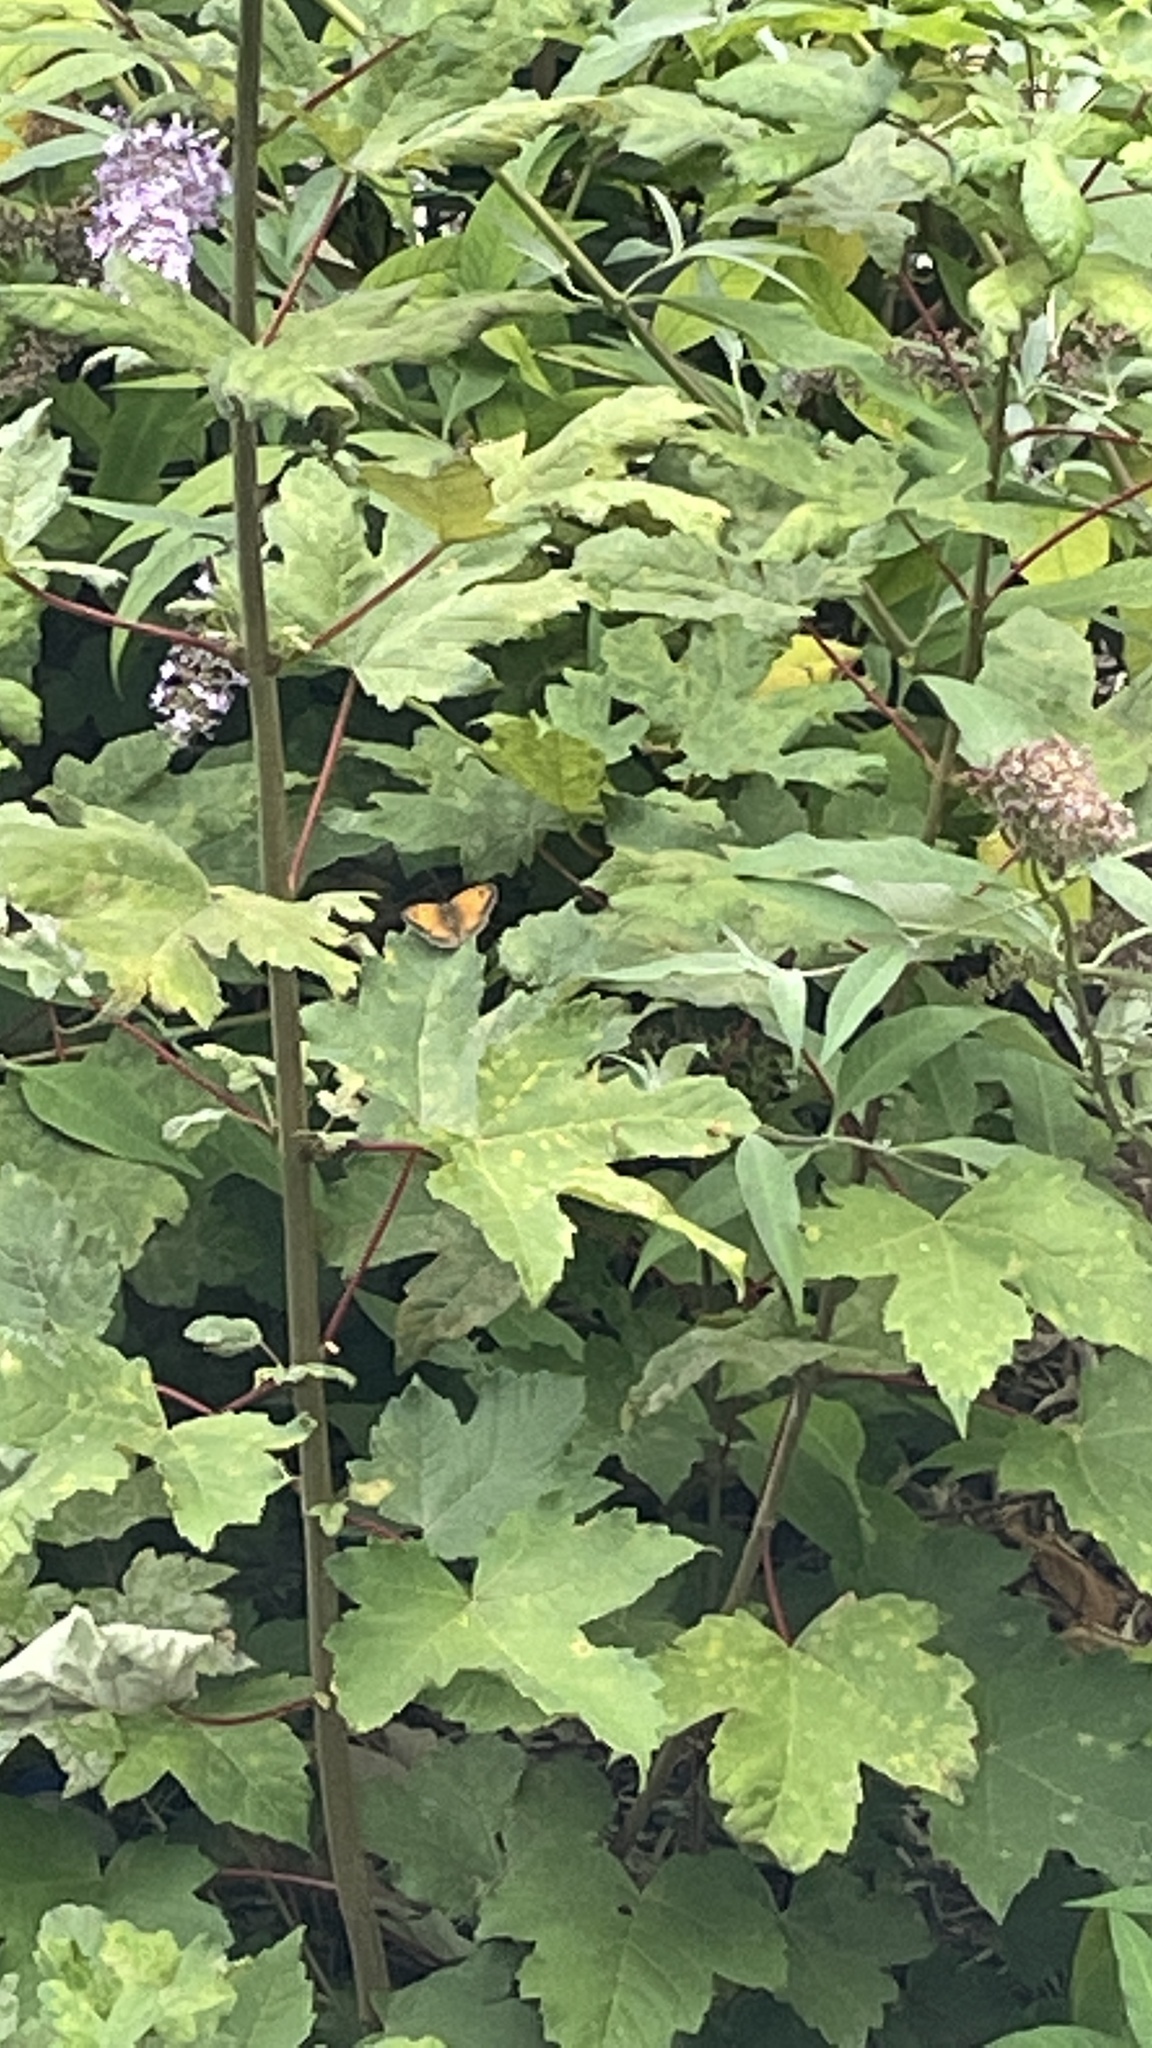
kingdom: Animalia
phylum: Arthropoda
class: Insecta
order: Lepidoptera
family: Nymphalidae
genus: Pyronia
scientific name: Pyronia tithonus
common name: Gatekeeper
